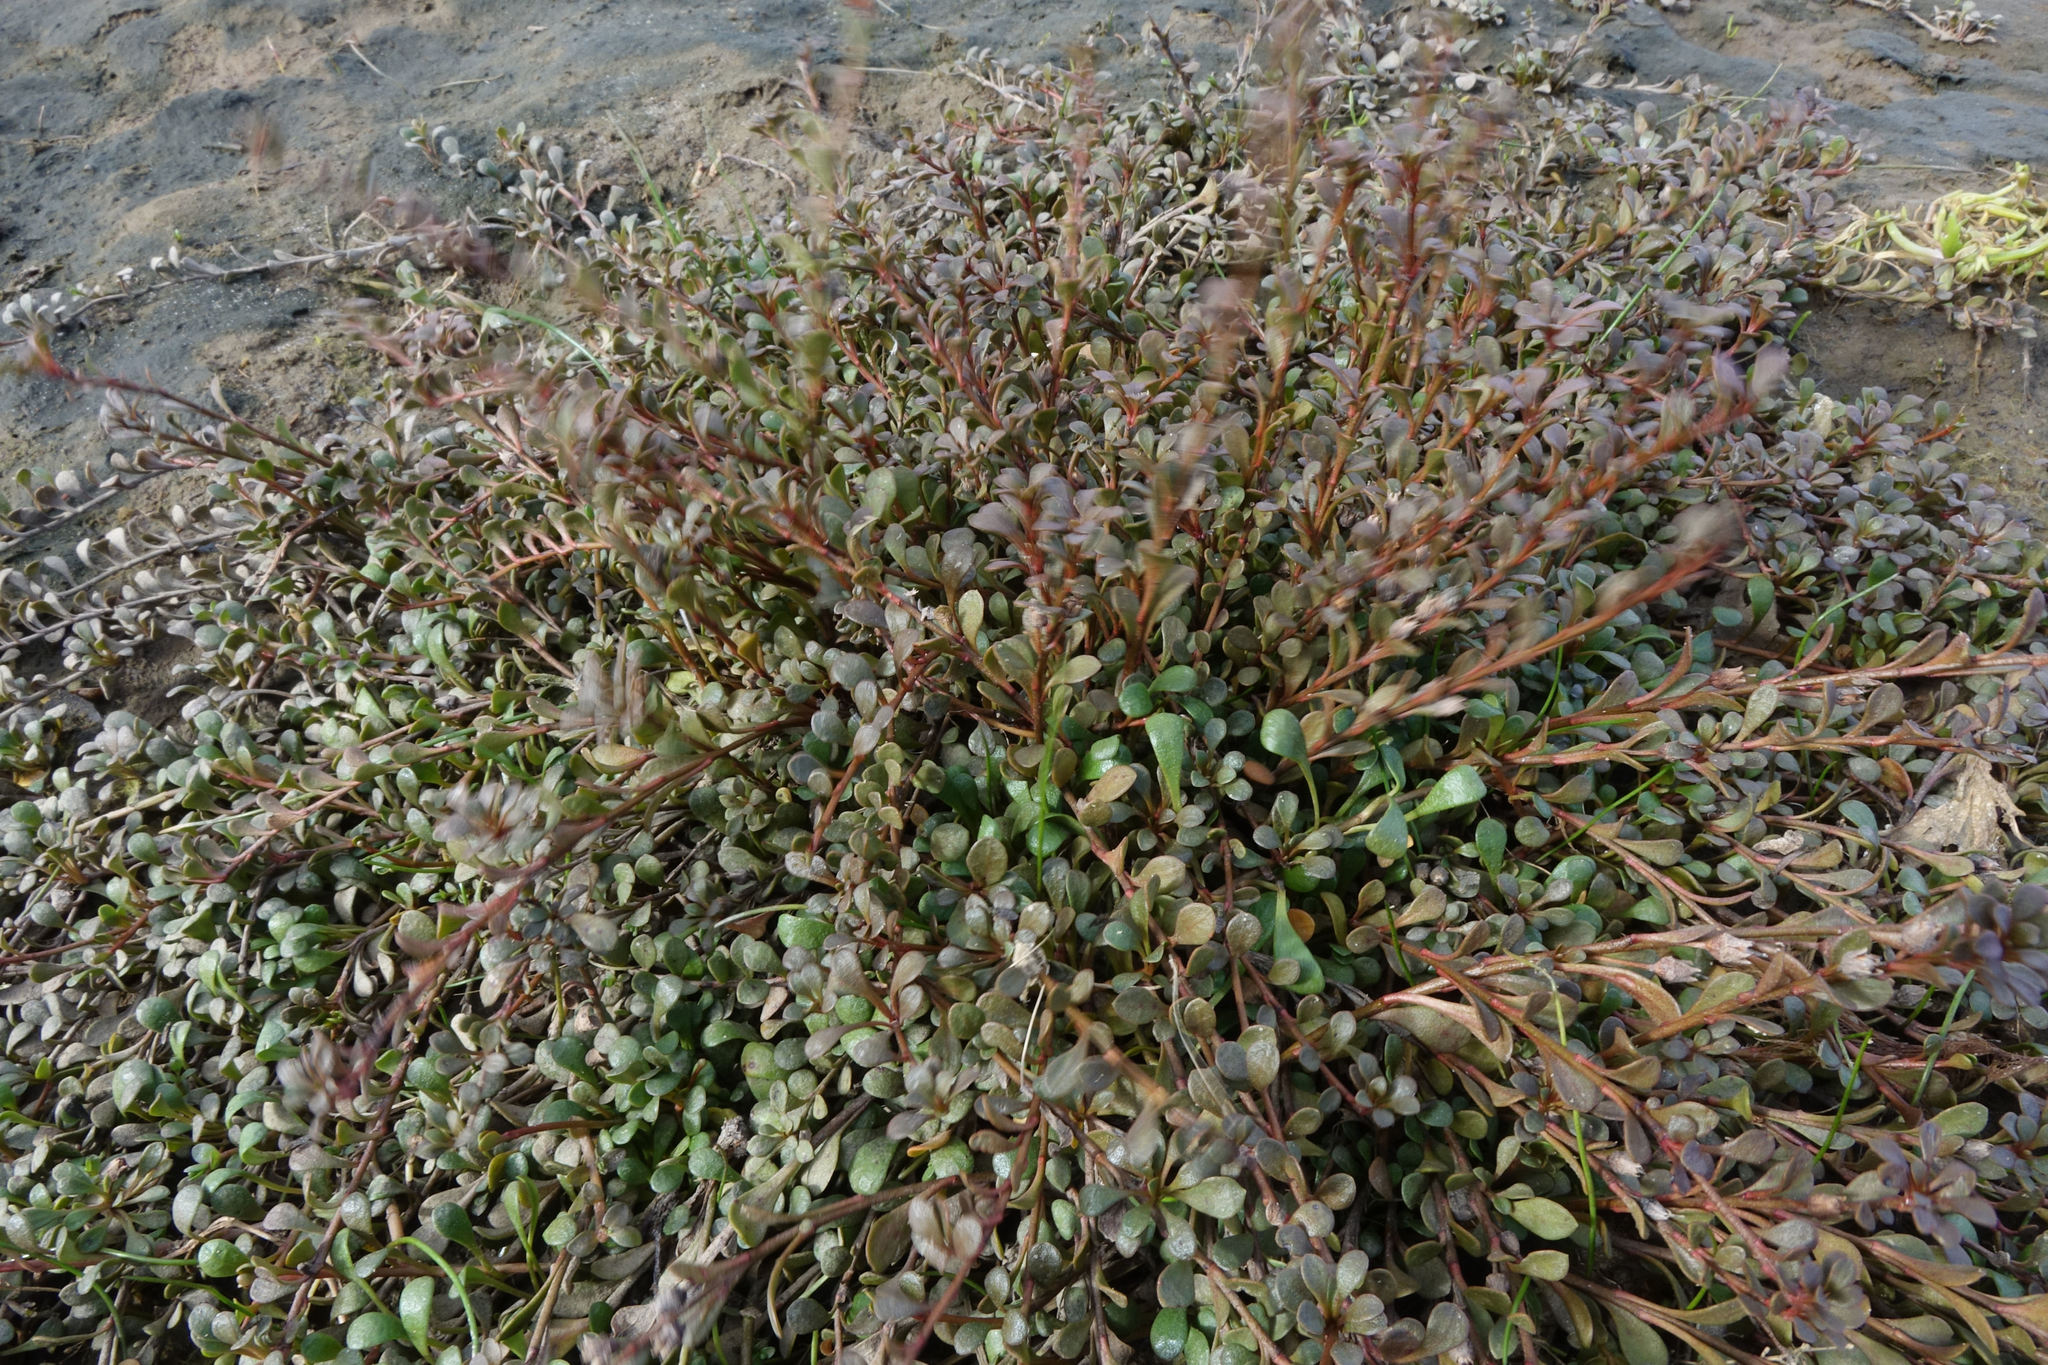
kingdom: Plantae
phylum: Tracheophyta
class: Magnoliopsida
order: Ericales
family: Primulaceae
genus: Samolus
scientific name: Samolus repens
